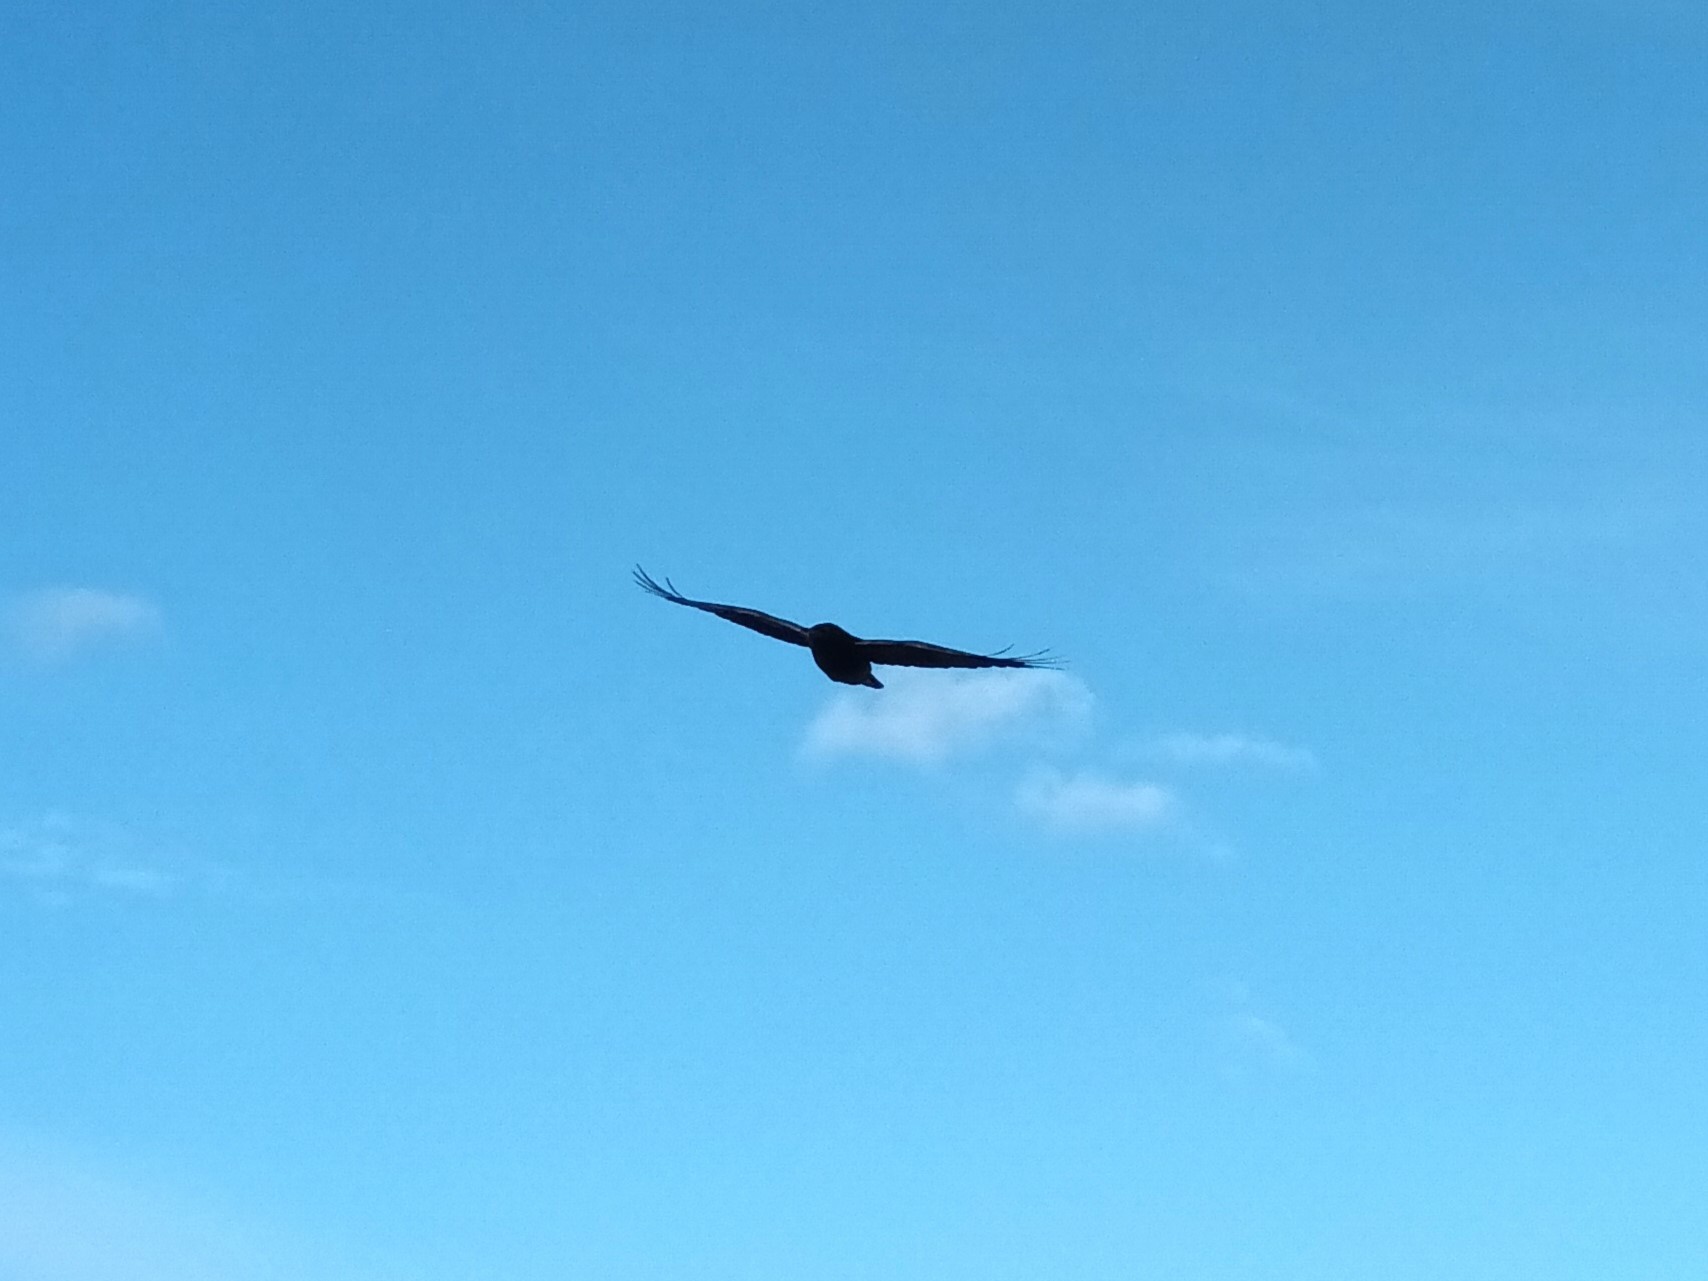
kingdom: Animalia
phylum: Chordata
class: Aves
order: Passeriformes
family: Corvidae
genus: Corvus
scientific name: Corvus corax
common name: Common raven
